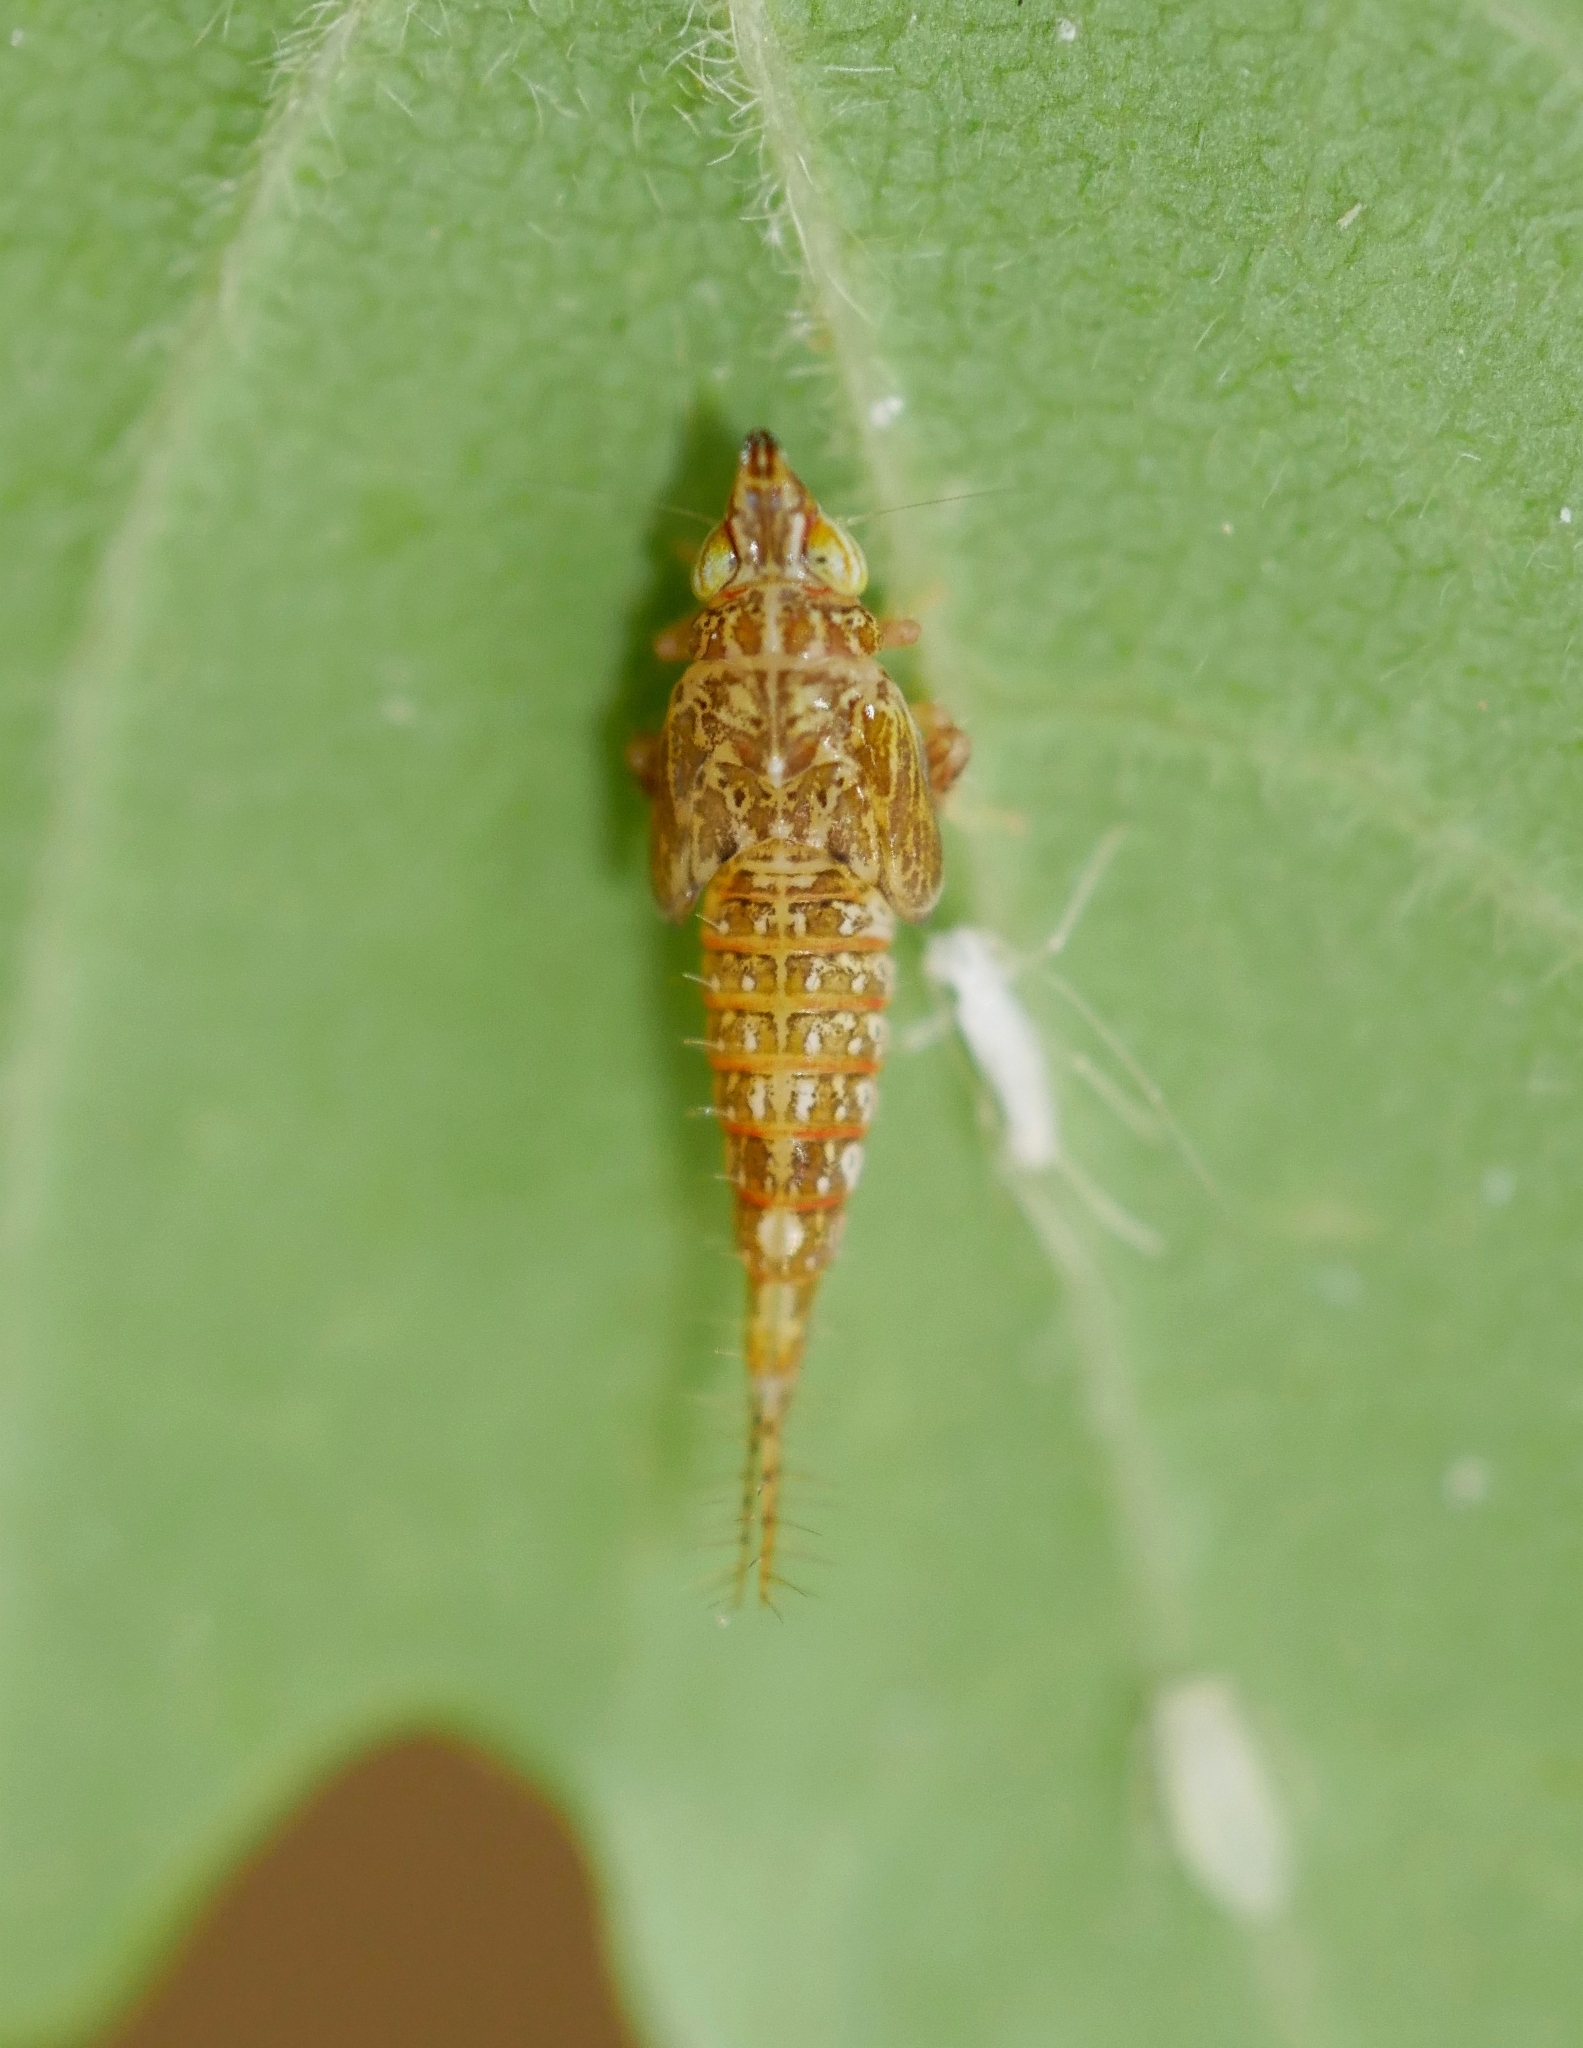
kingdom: Animalia
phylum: Arthropoda
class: Insecta
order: Hemiptera
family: Cicadellidae
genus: Japananus
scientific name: Japananus hyalinus
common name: The japanese maple leafhopper
